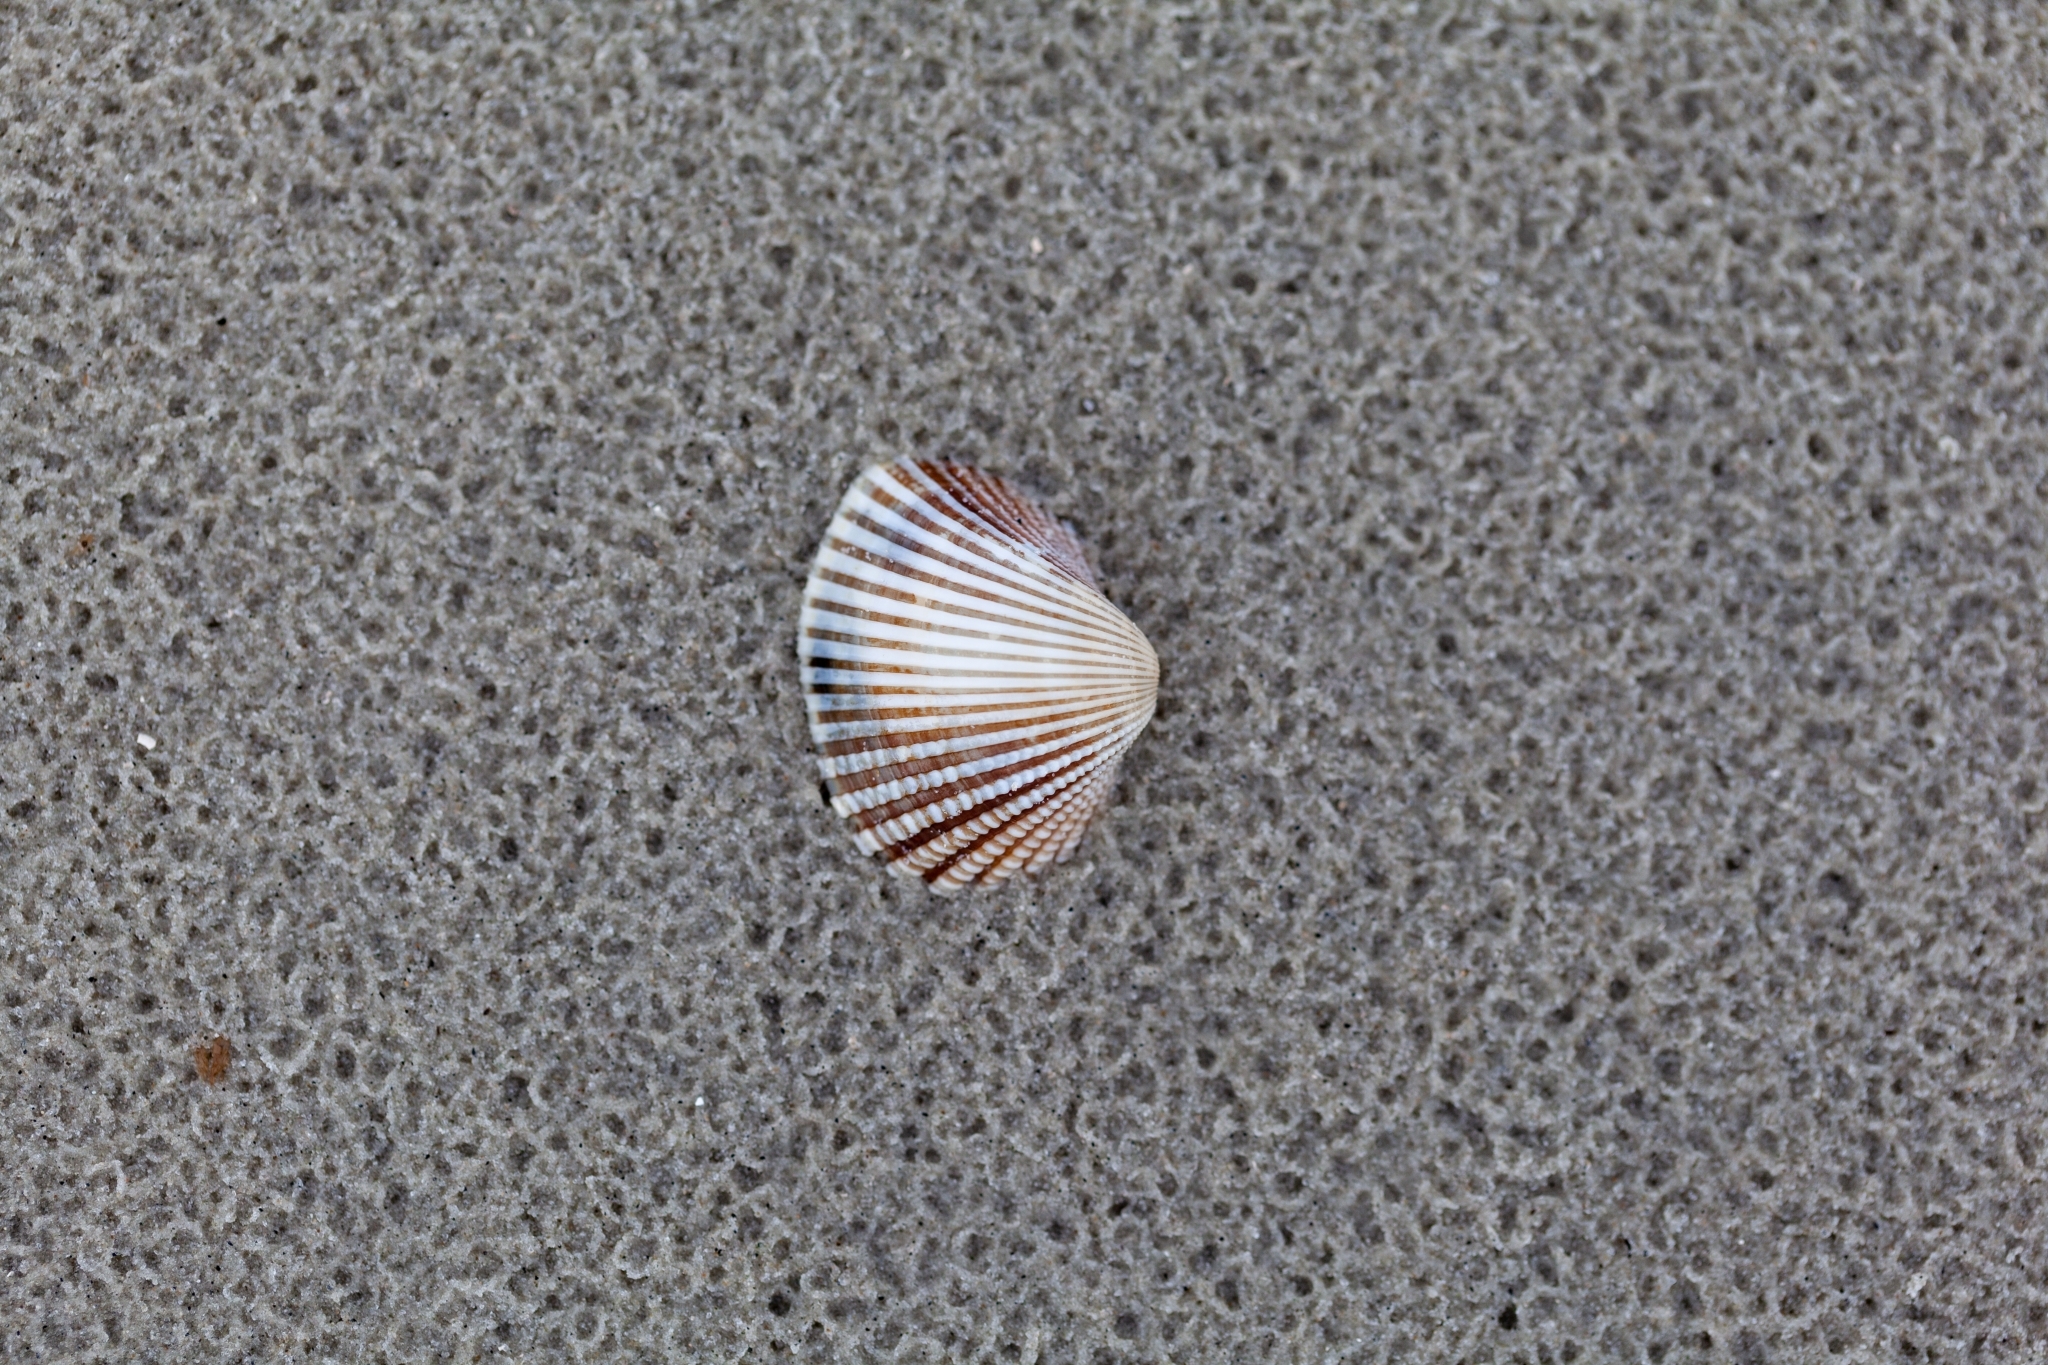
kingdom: Animalia
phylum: Mollusca
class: Bivalvia
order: Arcida
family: Arcidae
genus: Anadara
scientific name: Anadara brasiliana
